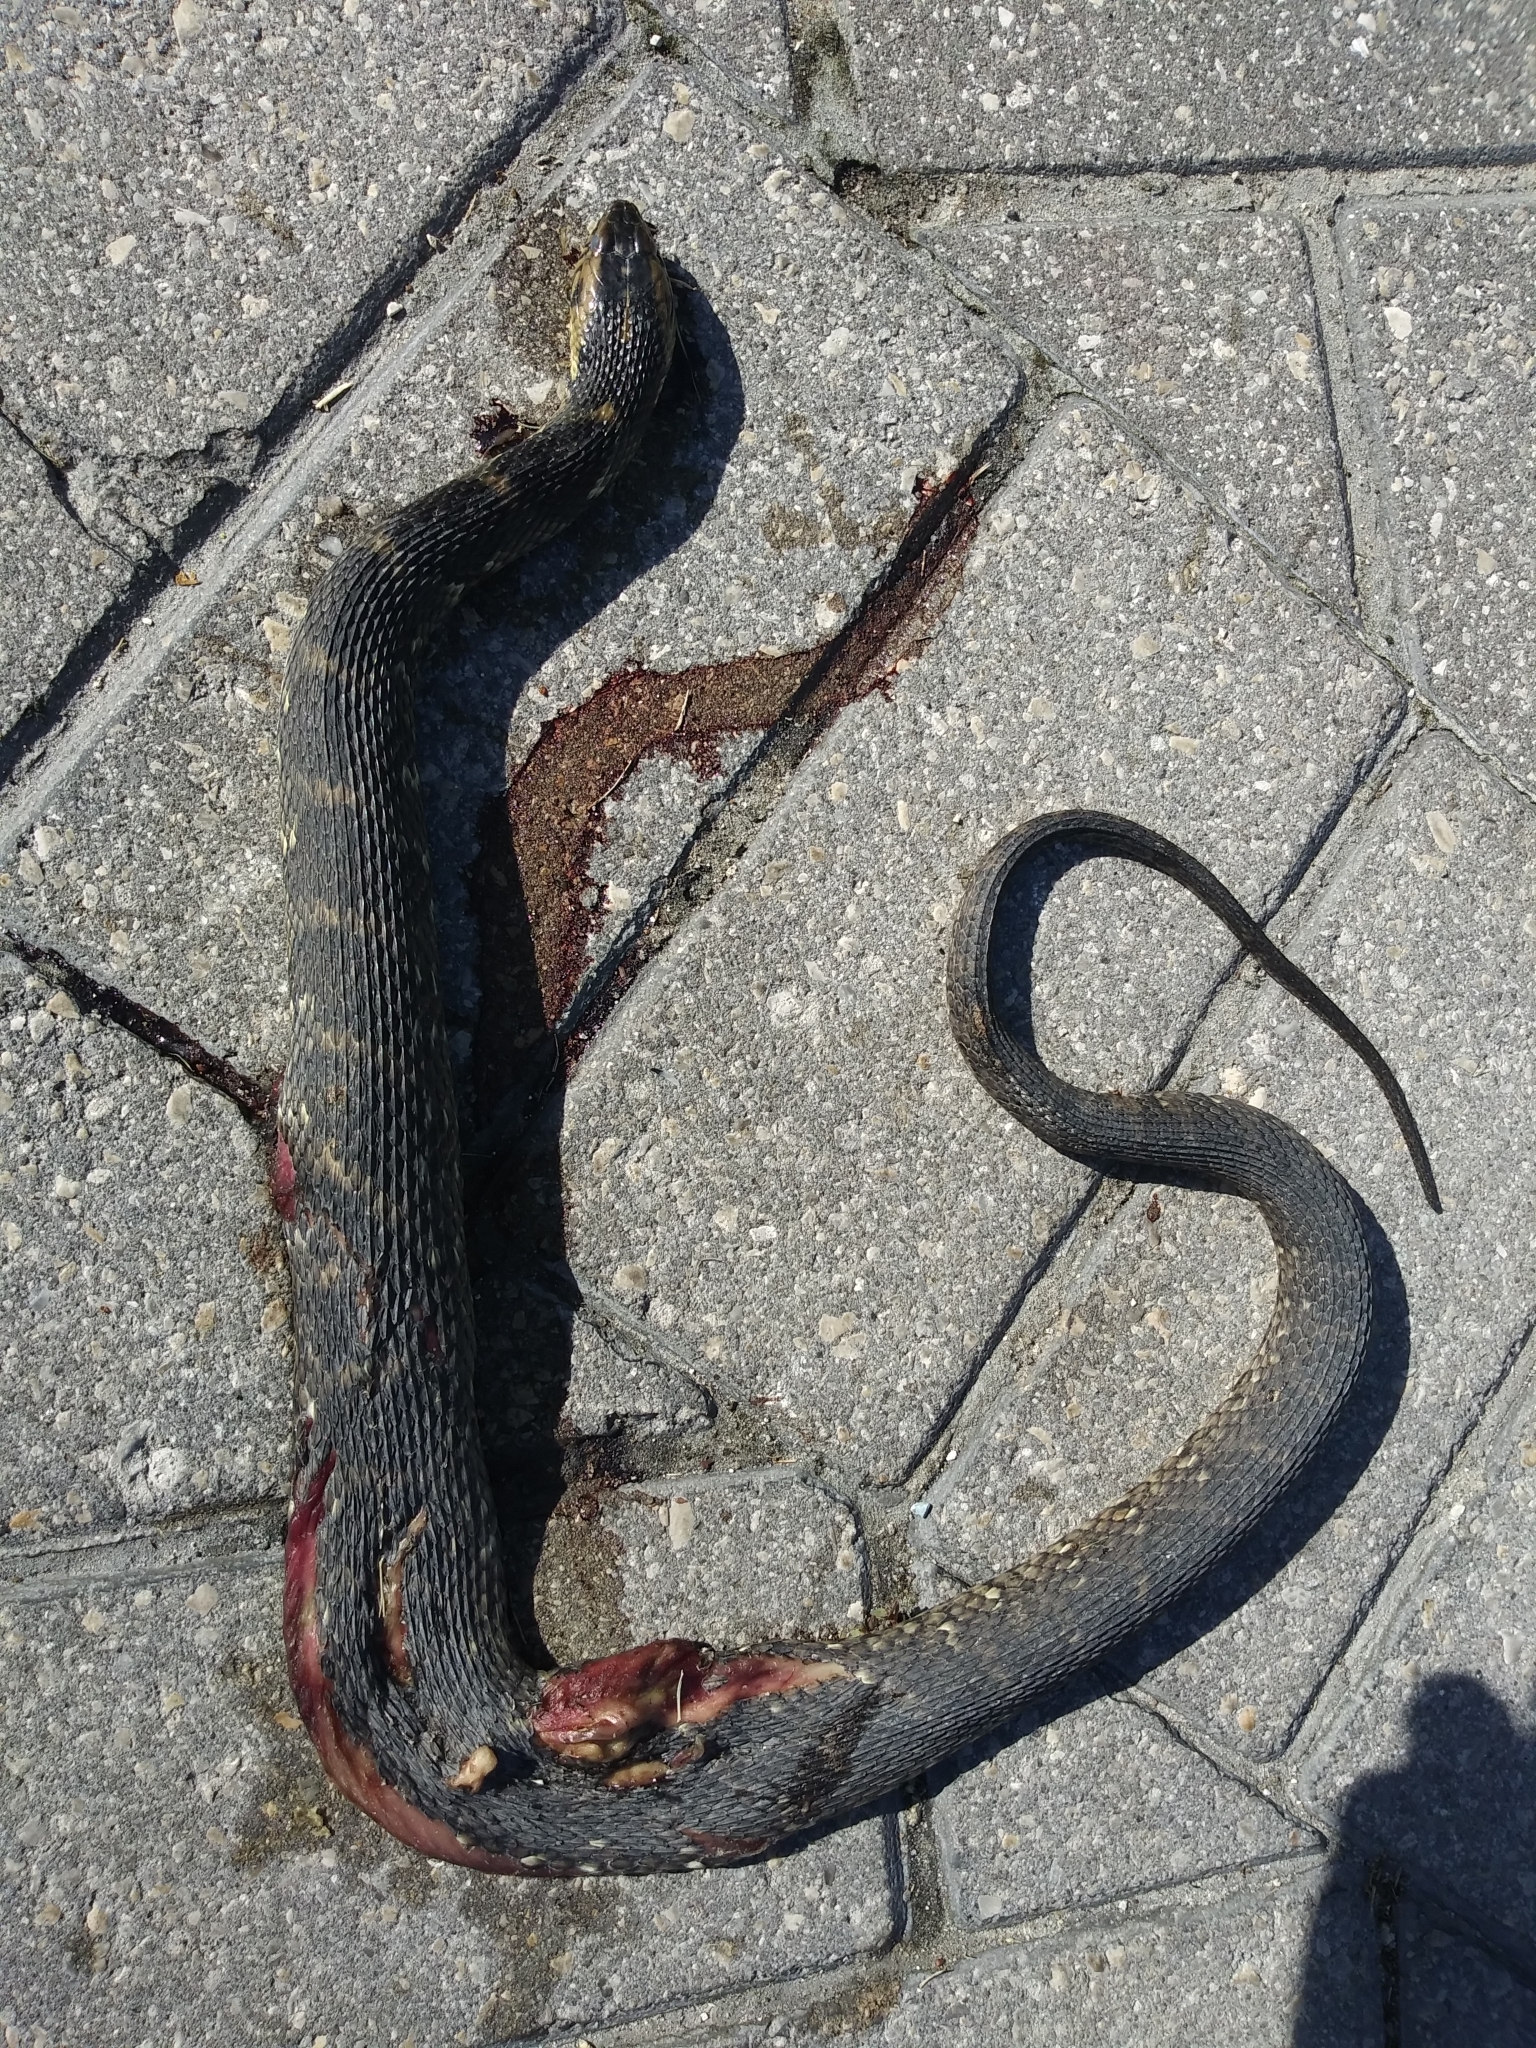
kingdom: Animalia
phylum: Chordata
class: Squamata
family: Colubridae
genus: Nerodia
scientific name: Nerodia fasciata
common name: Southern water snake
